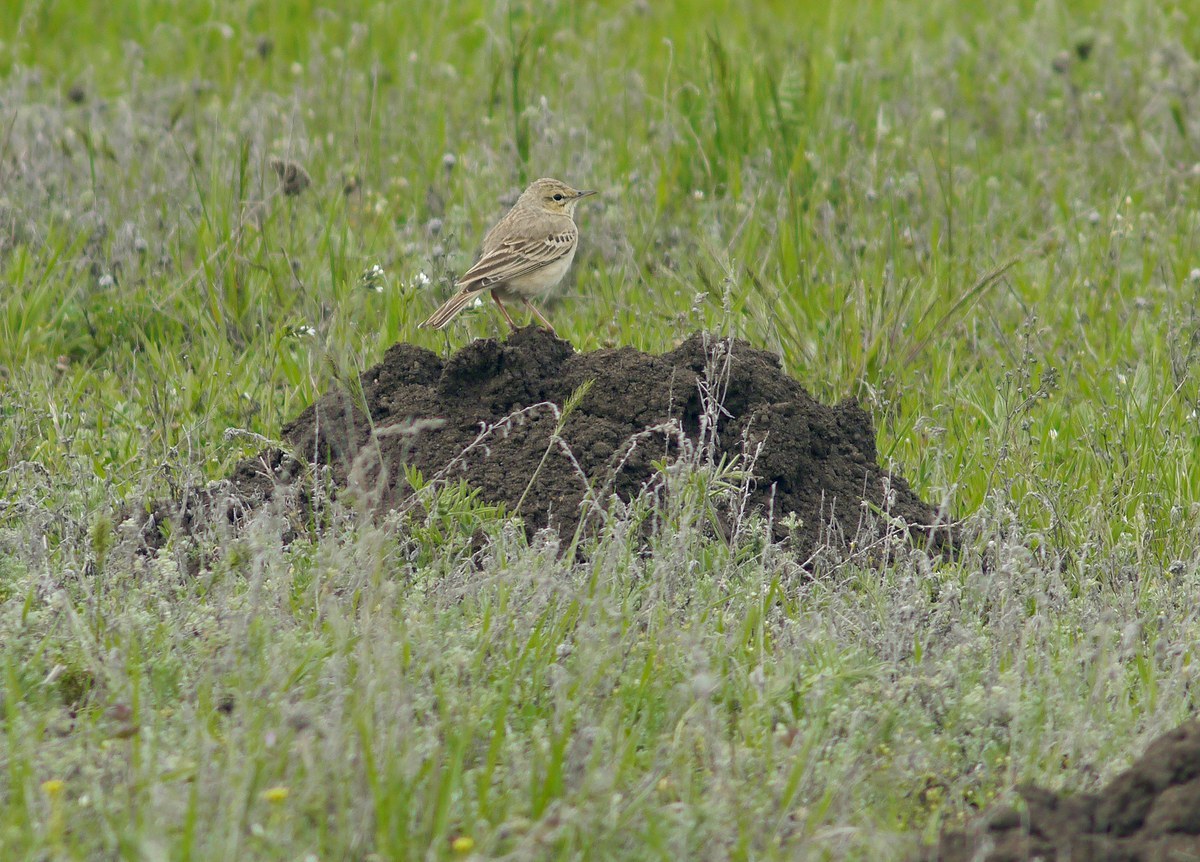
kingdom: Animalia
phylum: Chordata
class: Aves
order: Passeriformes
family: Motacillidae
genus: Anthus
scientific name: Anthus campestris
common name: Tawny pipit
